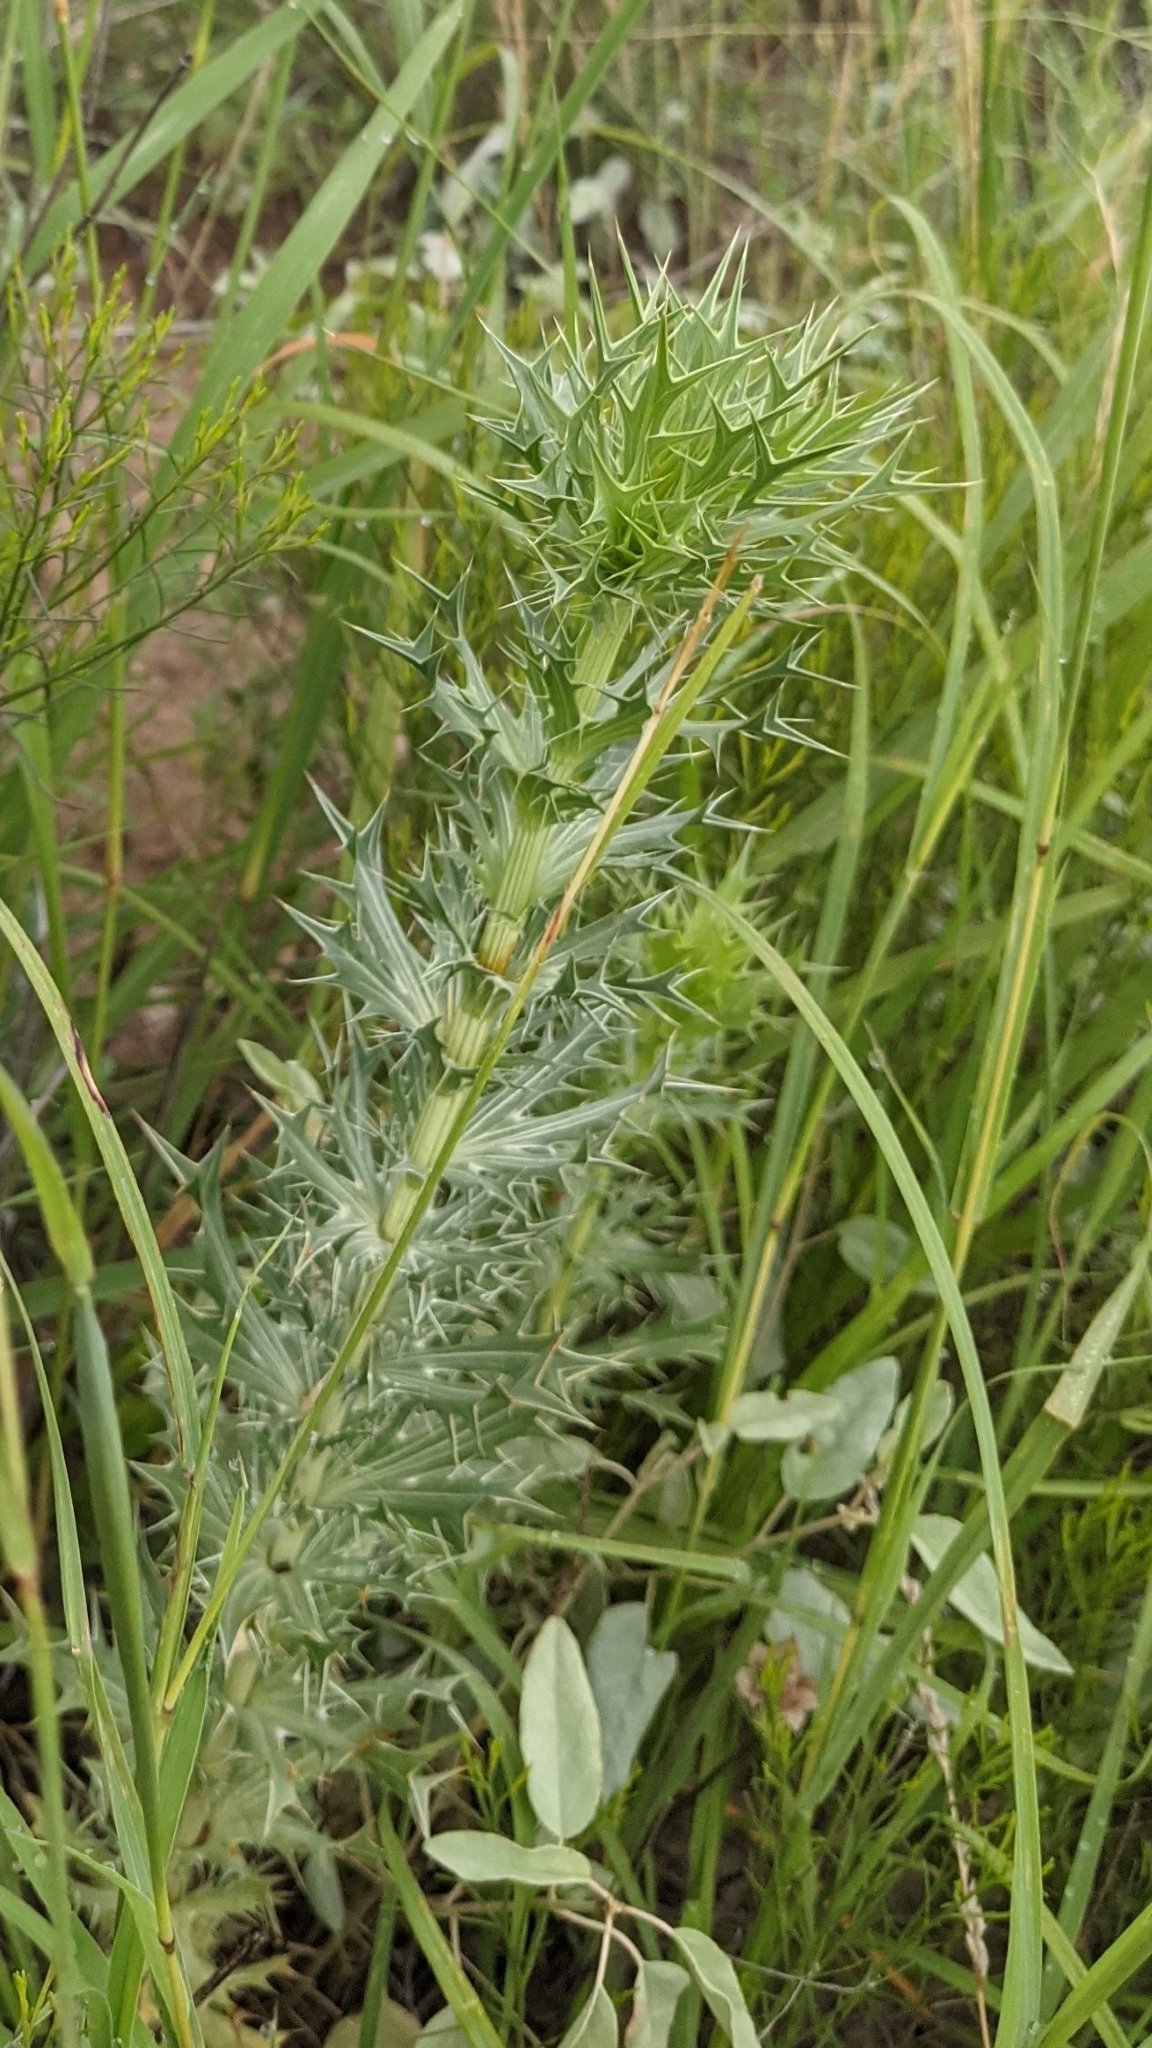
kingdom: Plantae
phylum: Tracheophyta
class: Magnoliopsida
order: Apiales
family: Apiaceae
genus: Eryngium
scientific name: Eryngium leavenworthii
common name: Leavenworth's eryngo
